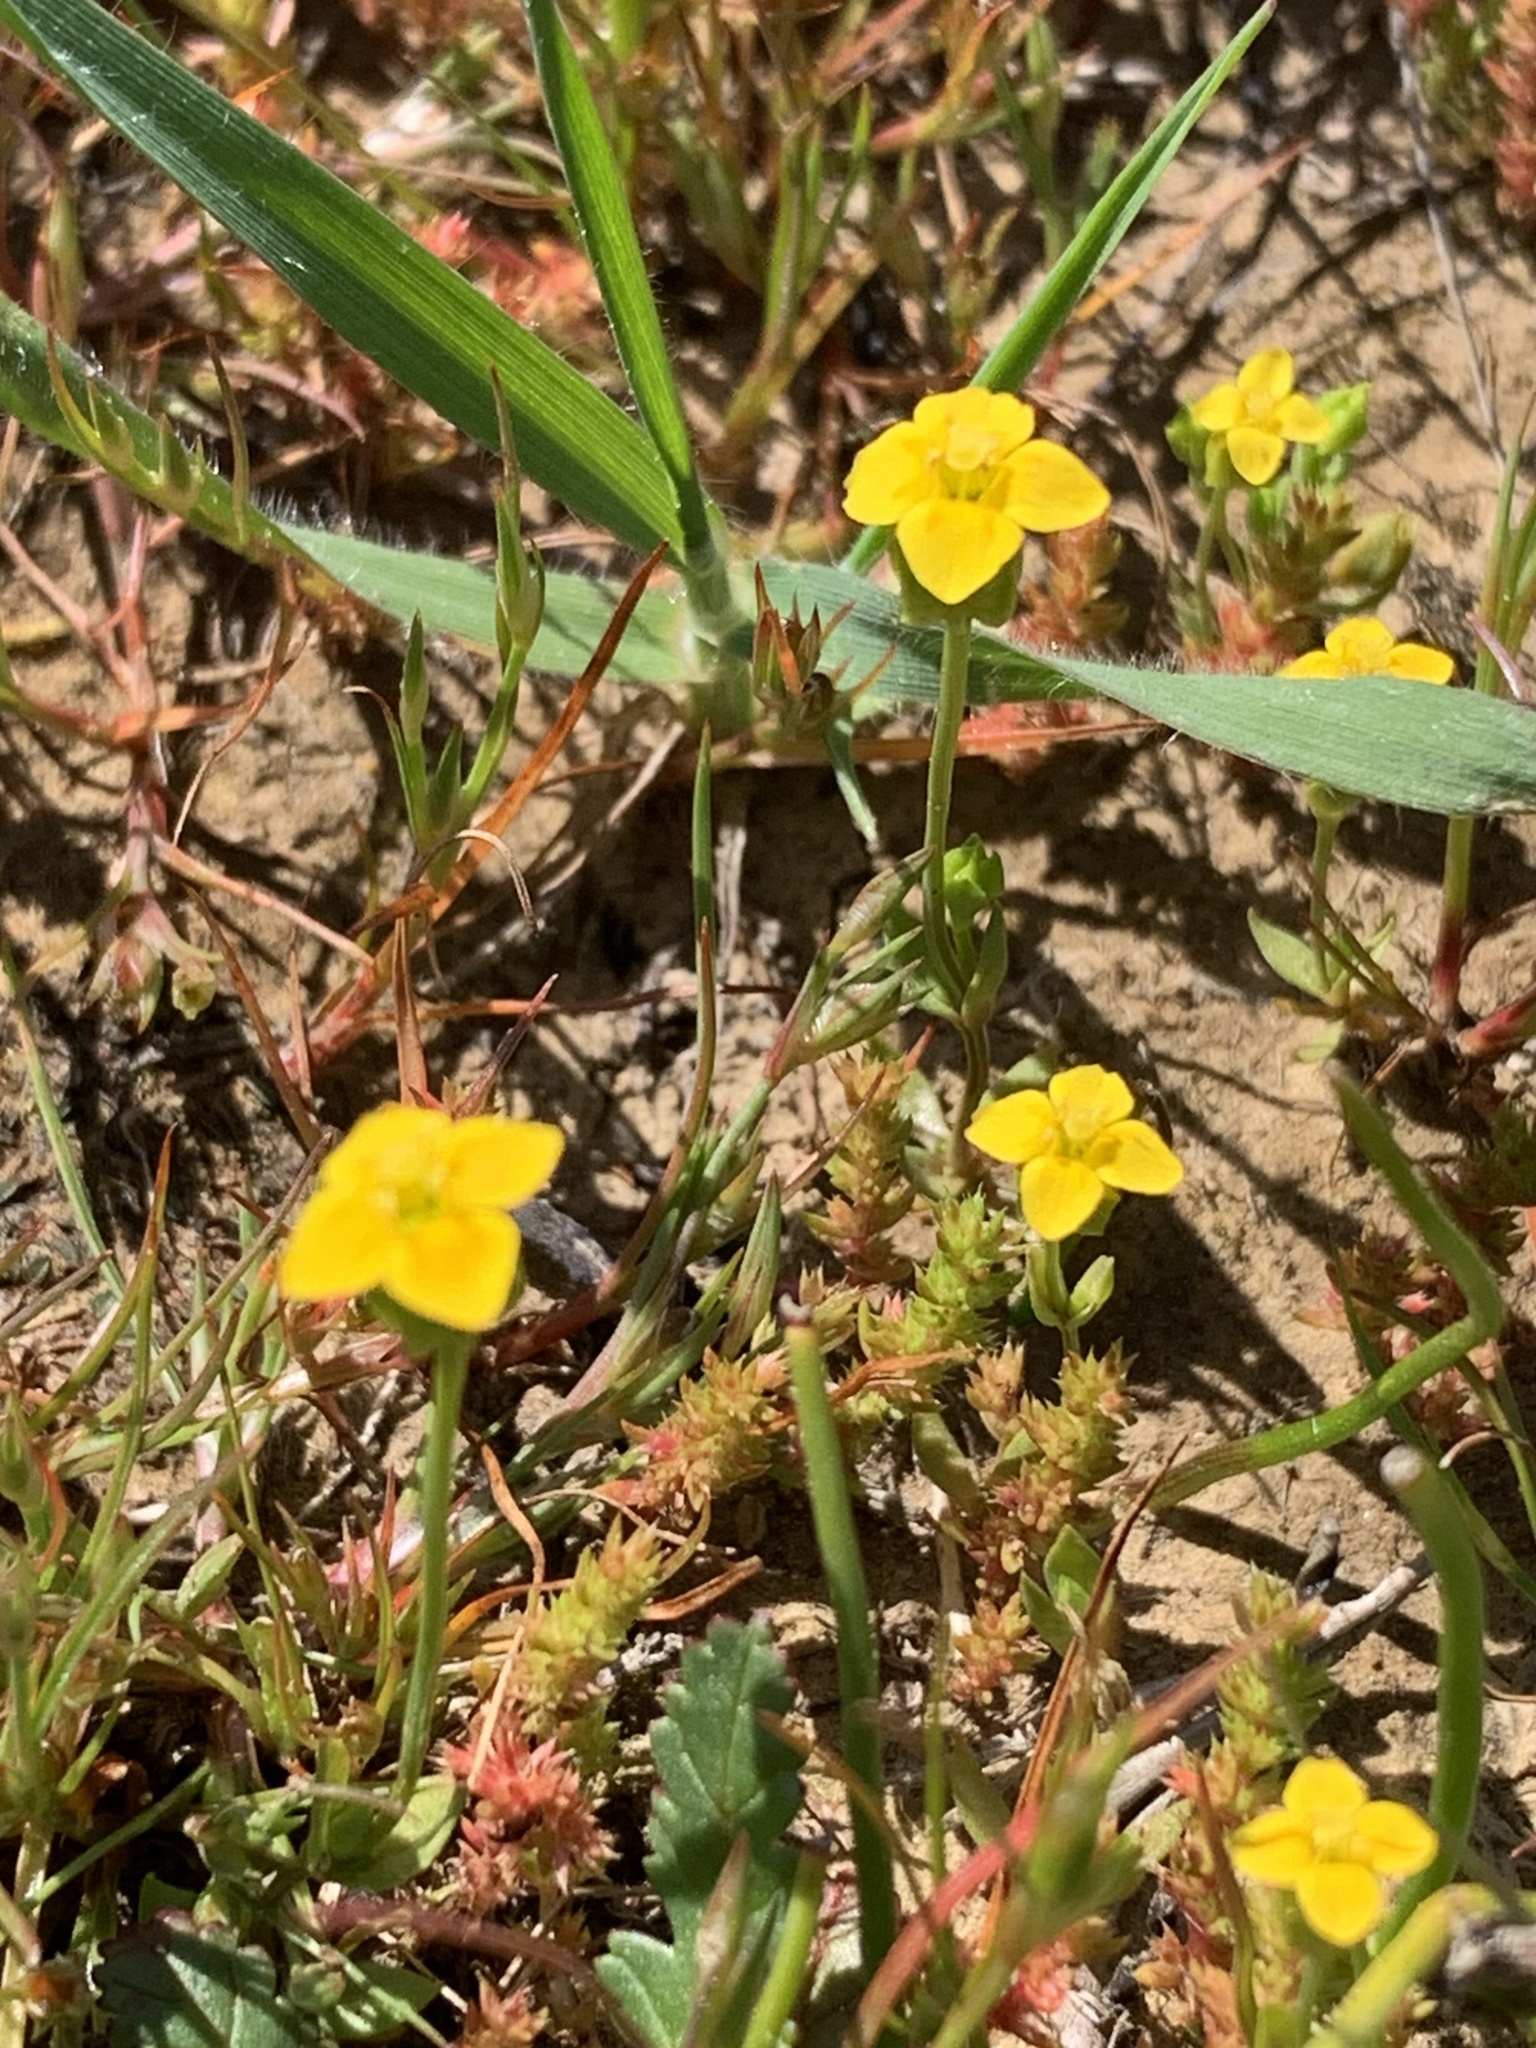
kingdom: Plantae
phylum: Tracheophyta
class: Magnoliopsida
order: Gentianales
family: Gentianaceae
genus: Microcala
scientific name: Microcala quadrangularis
